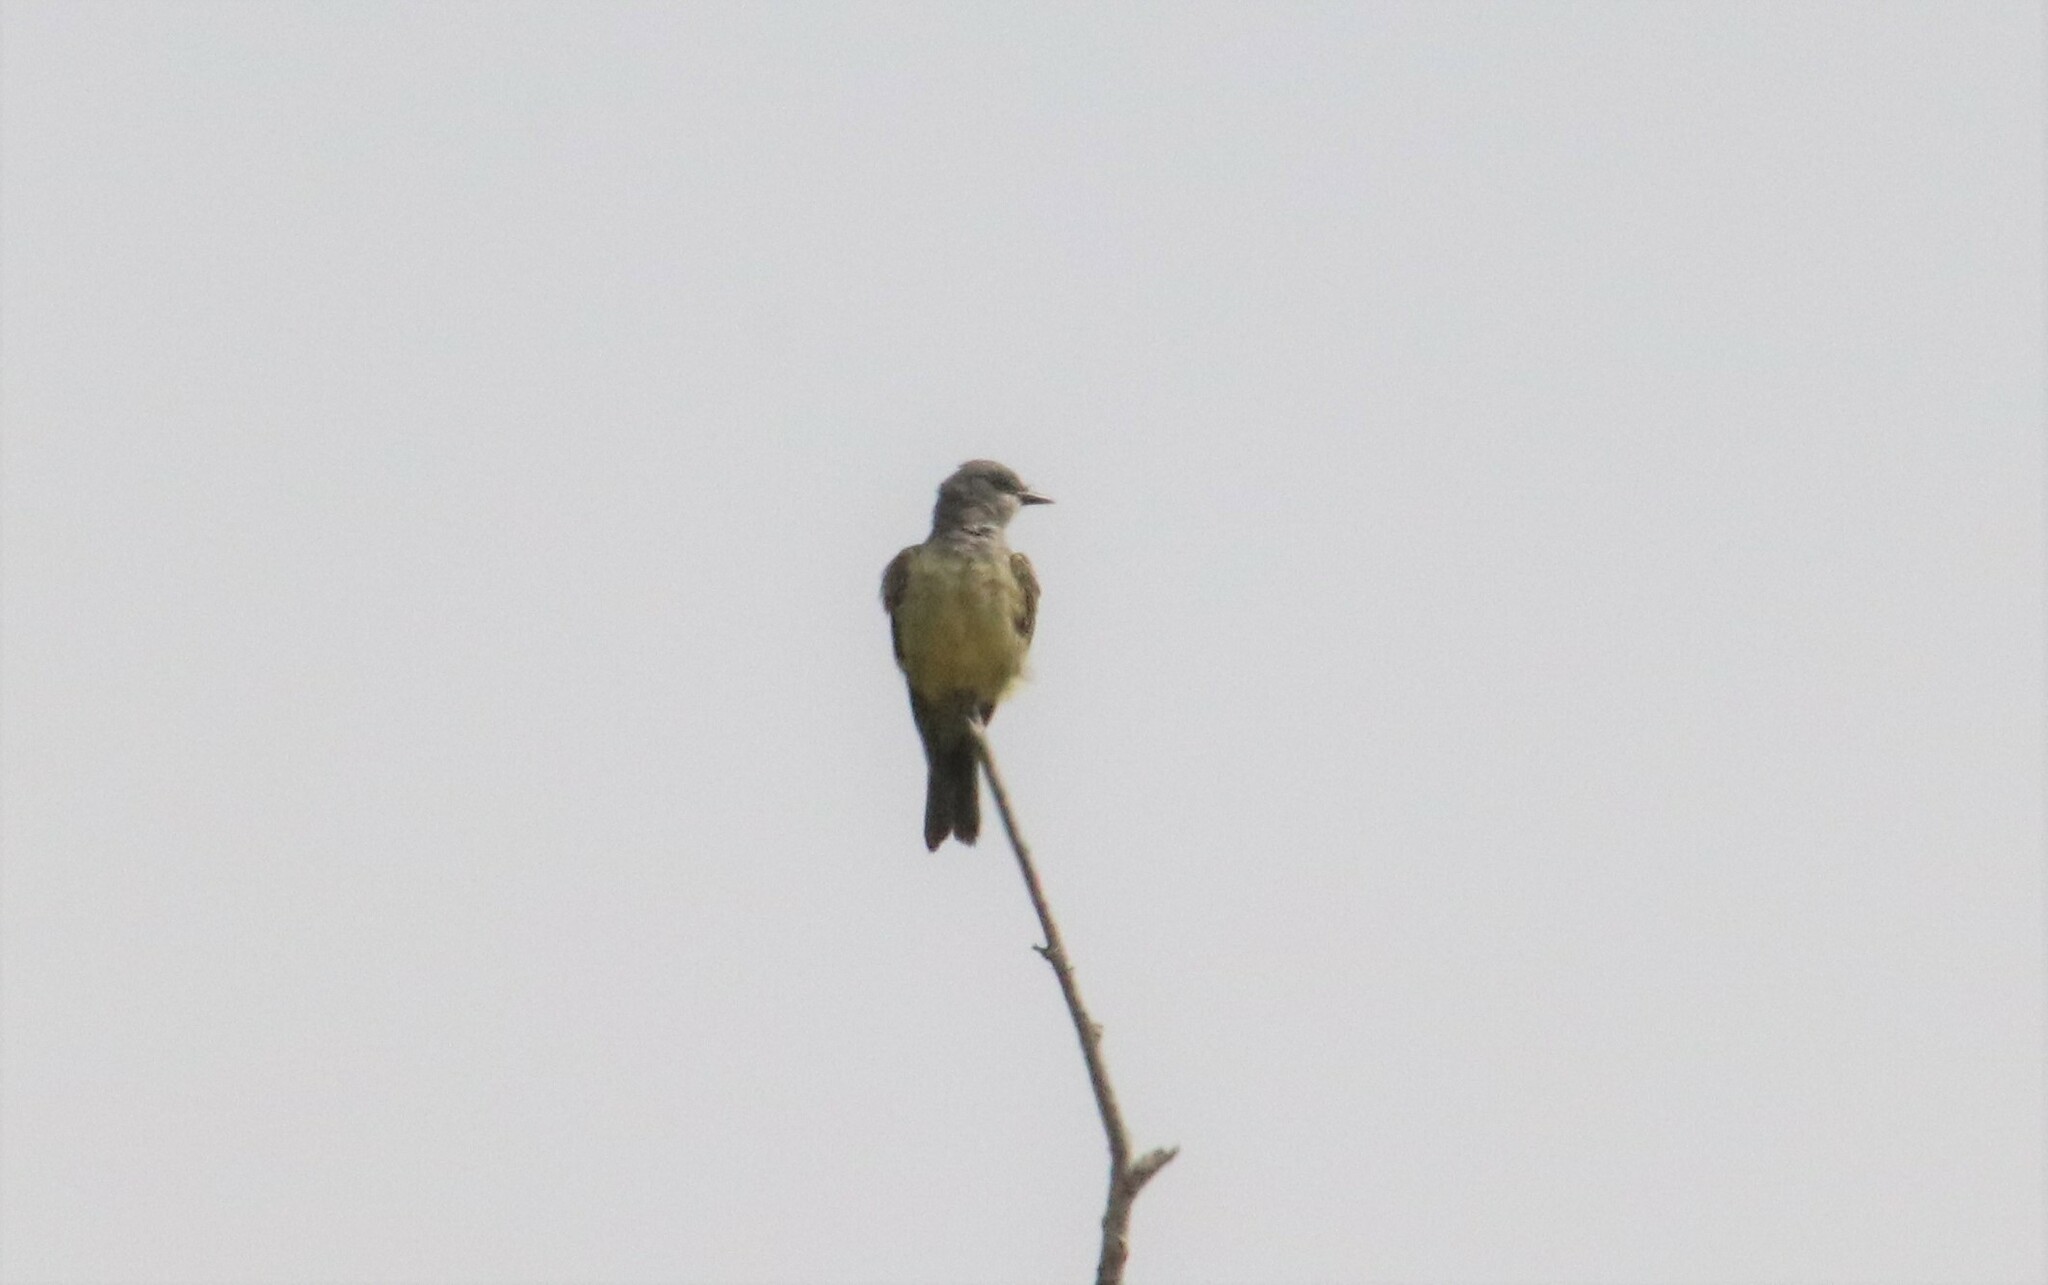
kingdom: Animalia
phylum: Chordata
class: Aves
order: Passeriformes
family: Tyrannidae
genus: Tyrannus
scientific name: Tyrannus vociferans
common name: Cassin's kingbird
